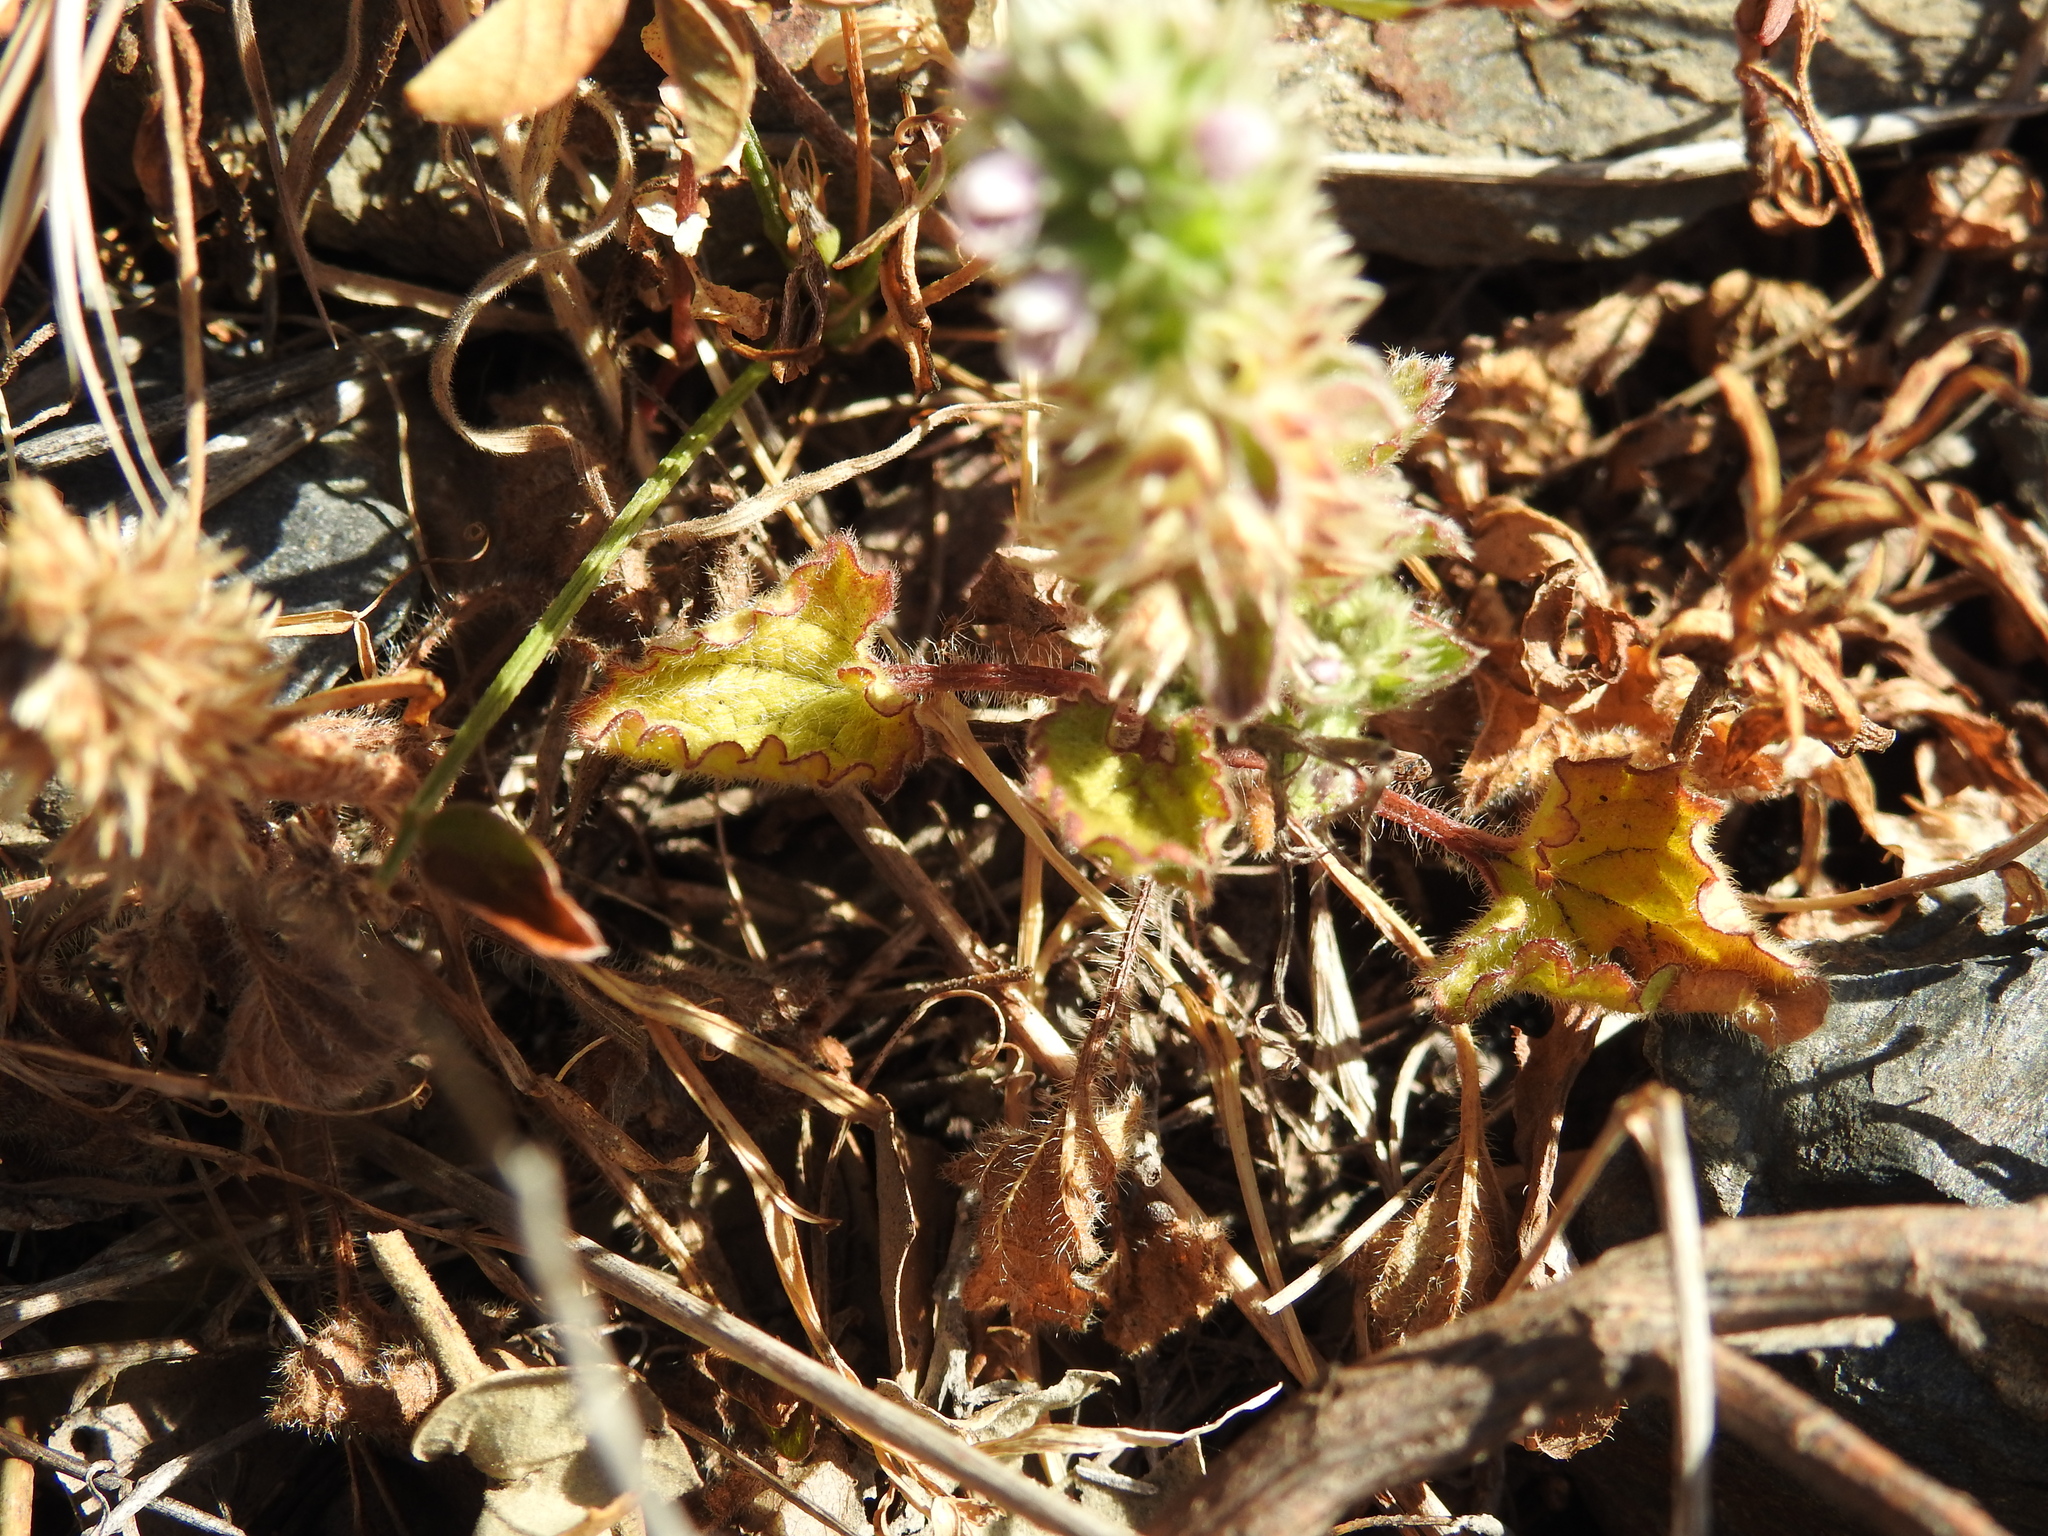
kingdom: Plantae
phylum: Tracheophyta
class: Magnoliopsida
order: Lamiales
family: Lamiaceae
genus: Stachys
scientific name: Stachys brachyclada
